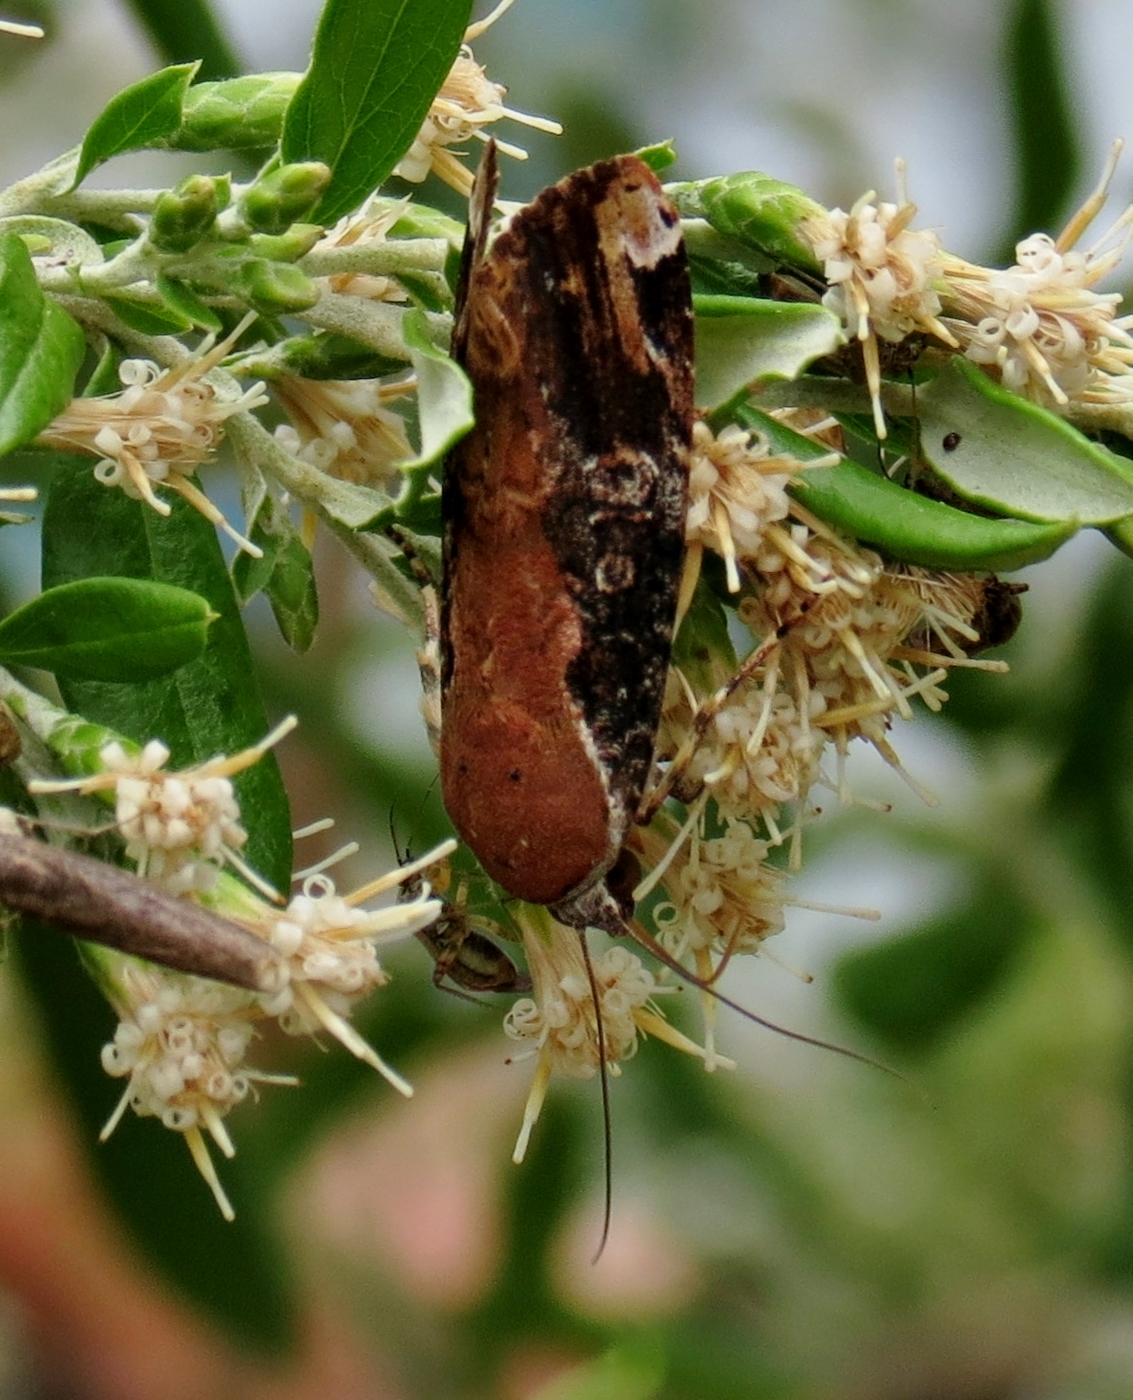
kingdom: Animalia
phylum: Arthropoda
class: Insecta
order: Lepidoptera
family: Noctuidae
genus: Magusa
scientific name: Magusa divaricata
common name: Orb narrow-winged moth
